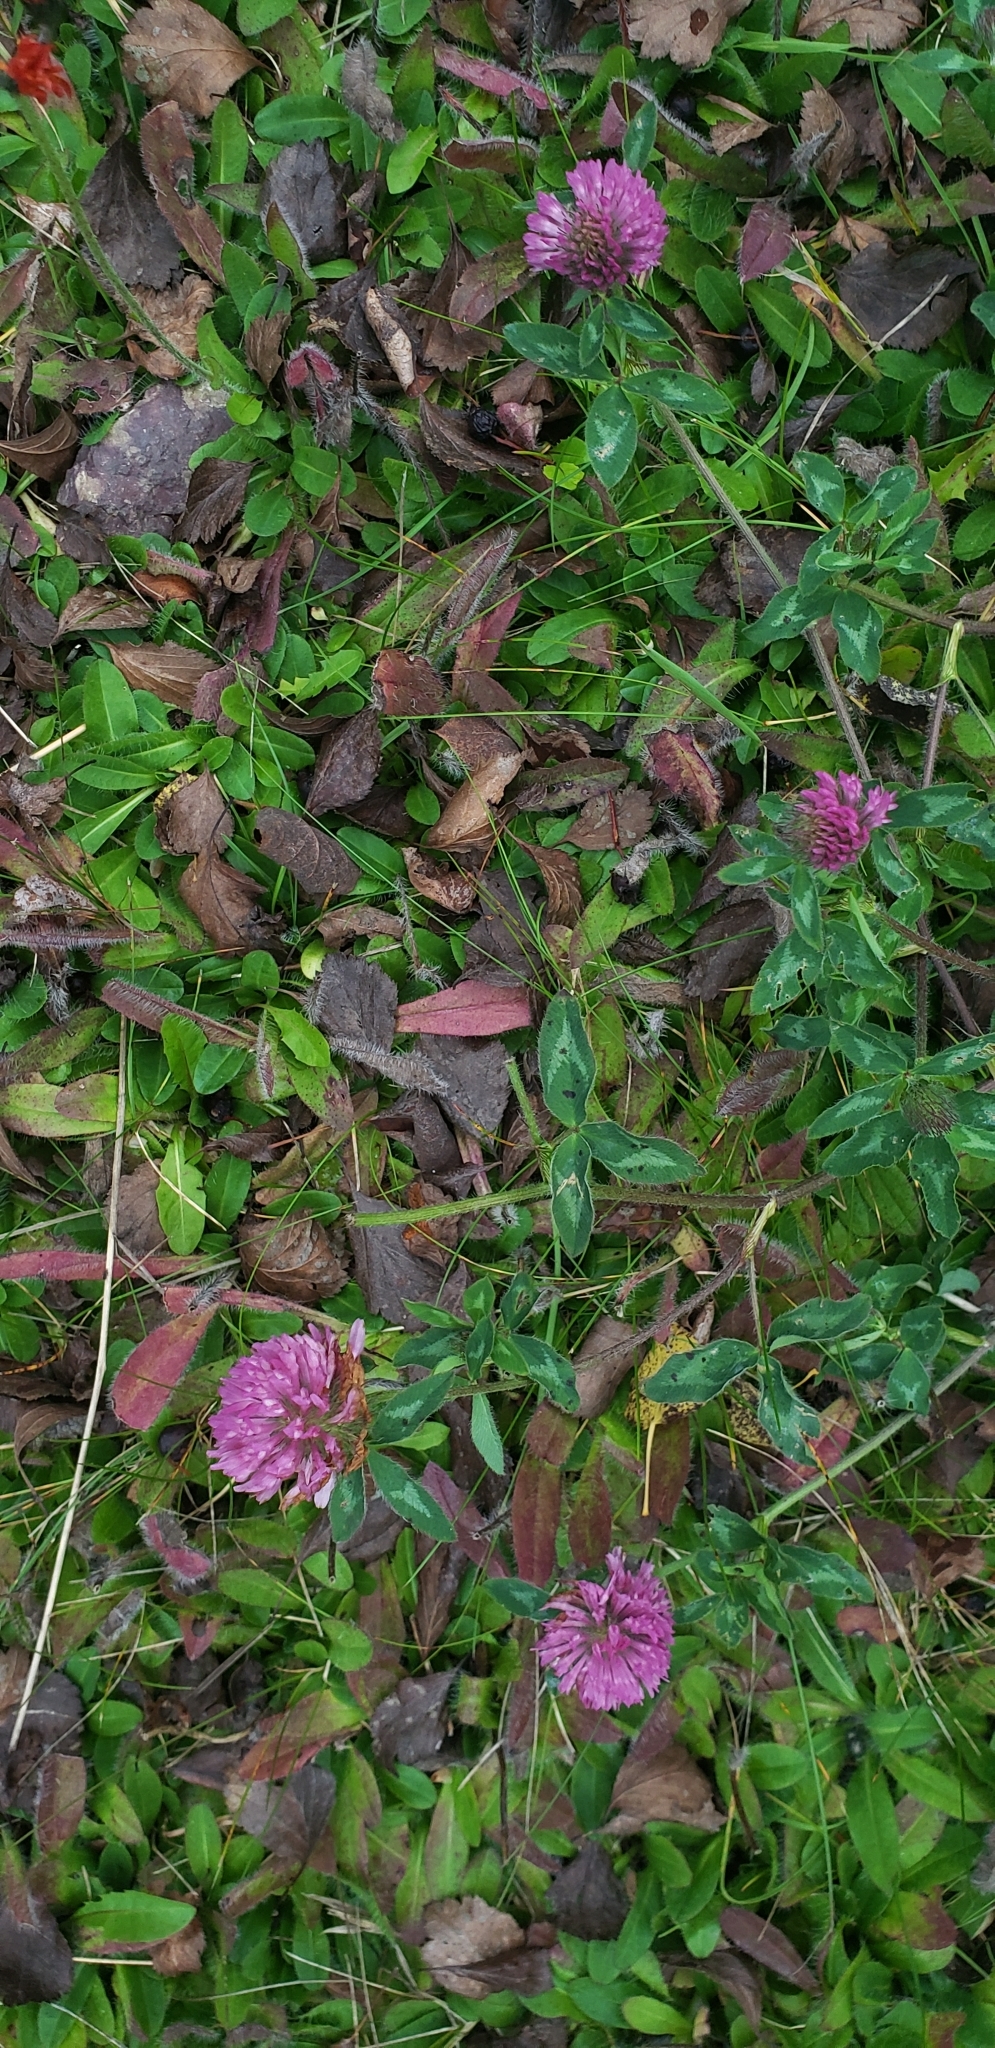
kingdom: Plantae
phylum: Tracheophyta
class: Magnoliopsida
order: Fabales
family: Fabaceae
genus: Trifolium
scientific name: Trifolium pratense
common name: Red clover
